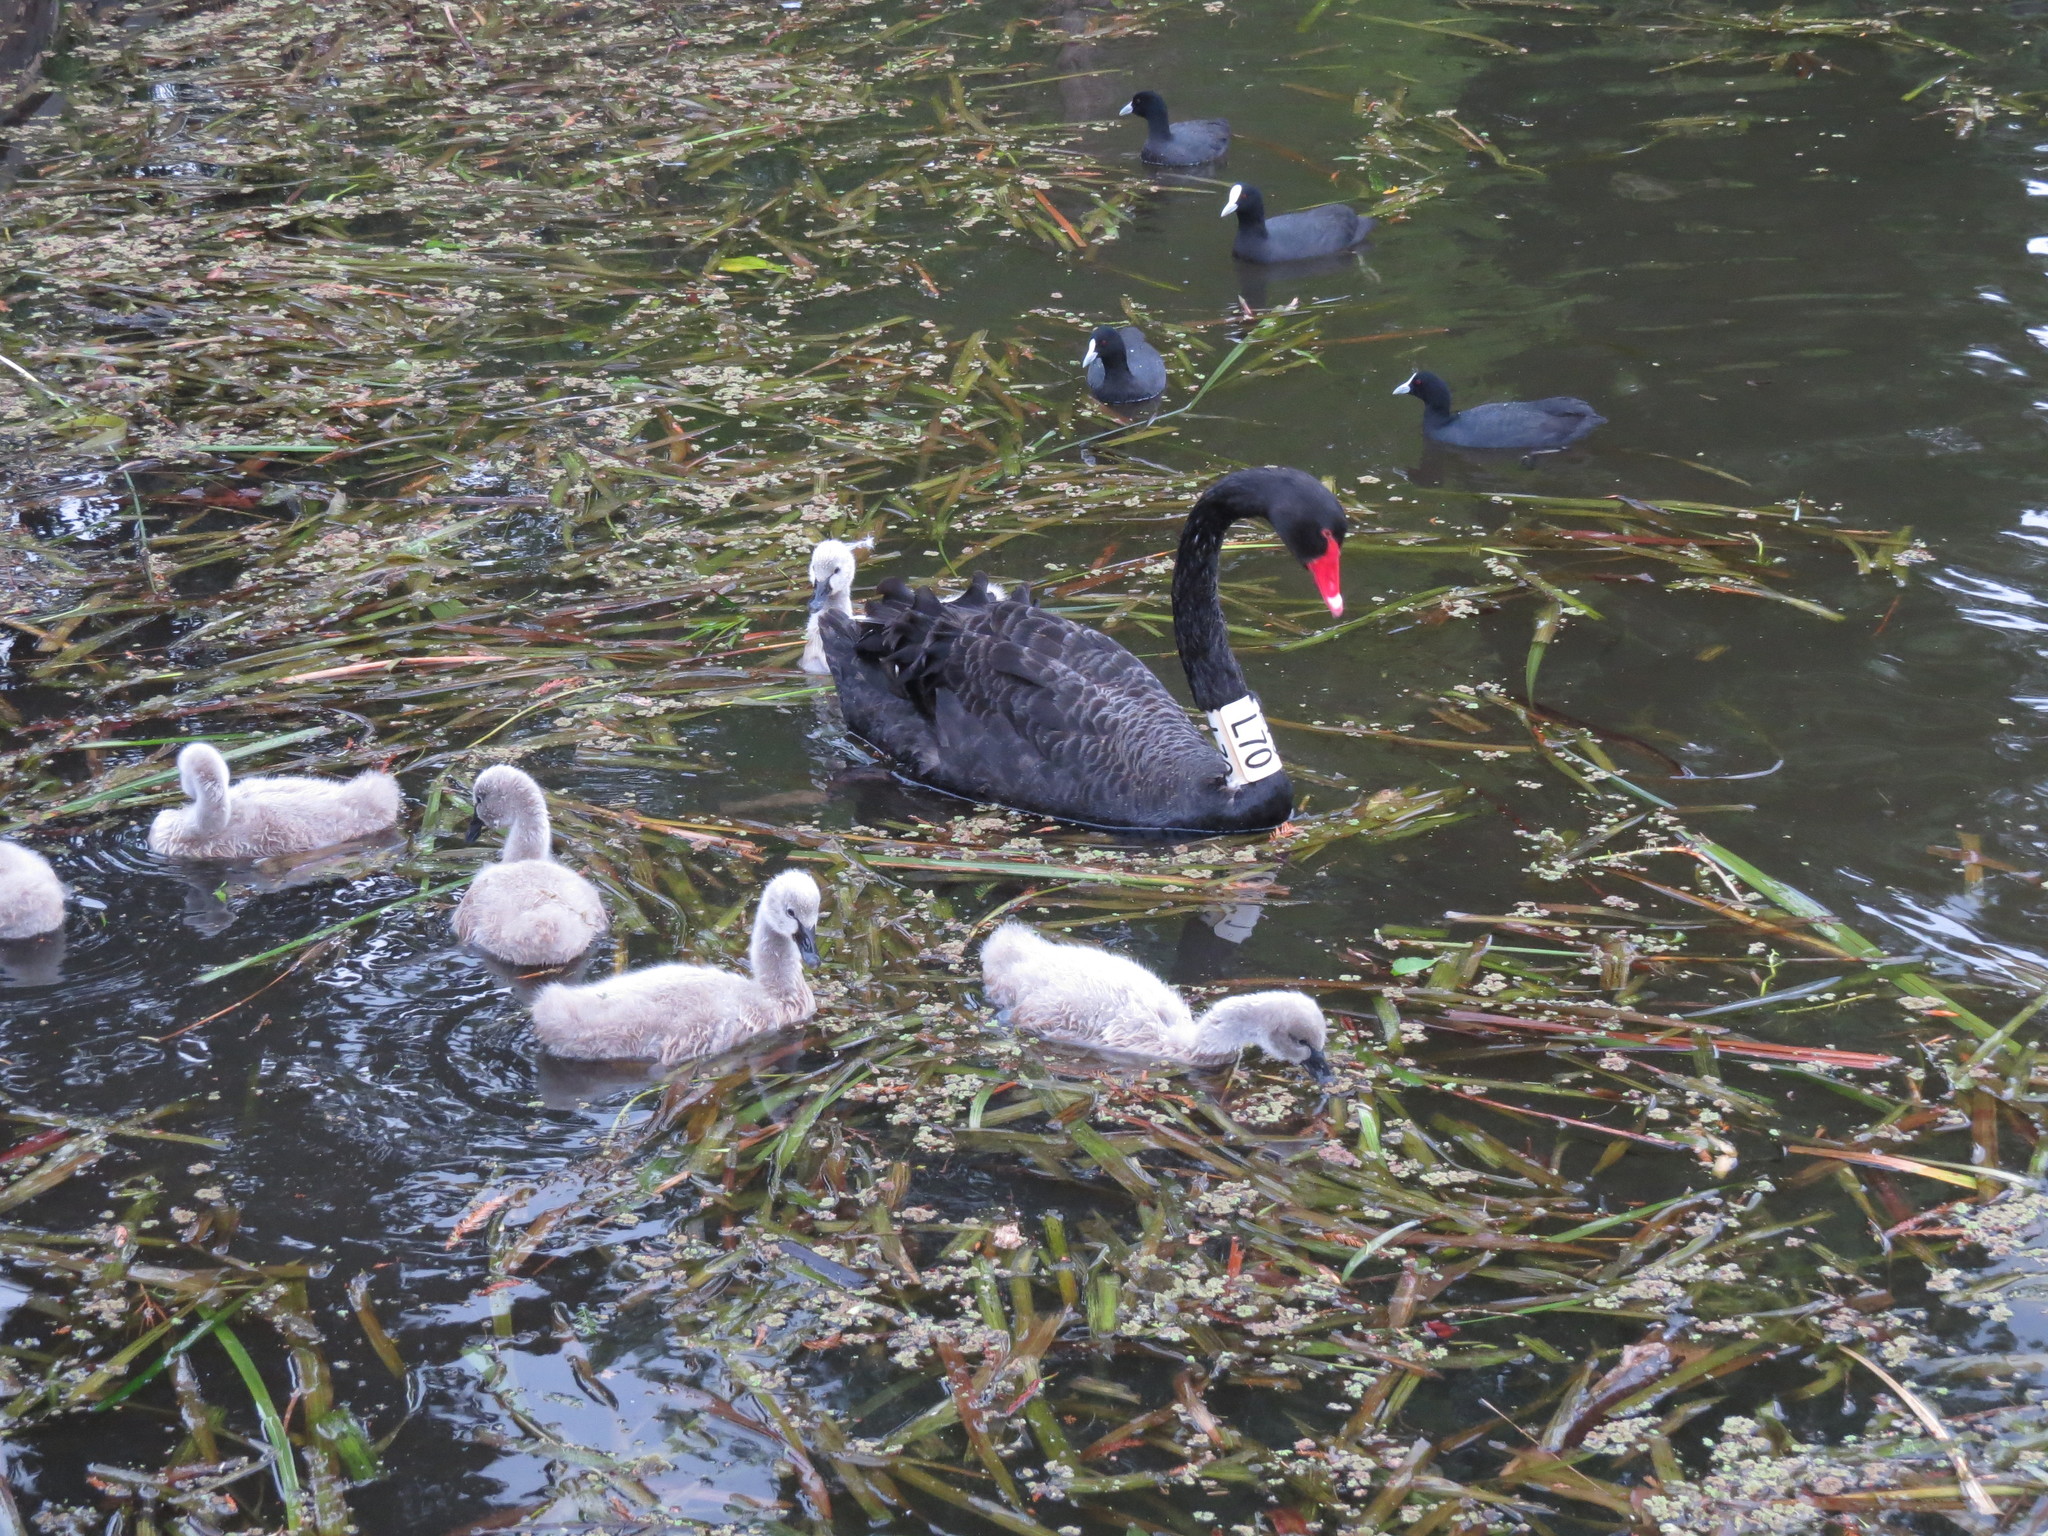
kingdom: Animalia
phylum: Chordata
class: Aves
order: Anseriformes
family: Anatidae
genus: Cygnus
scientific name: Cygnus atratus
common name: Black swan
